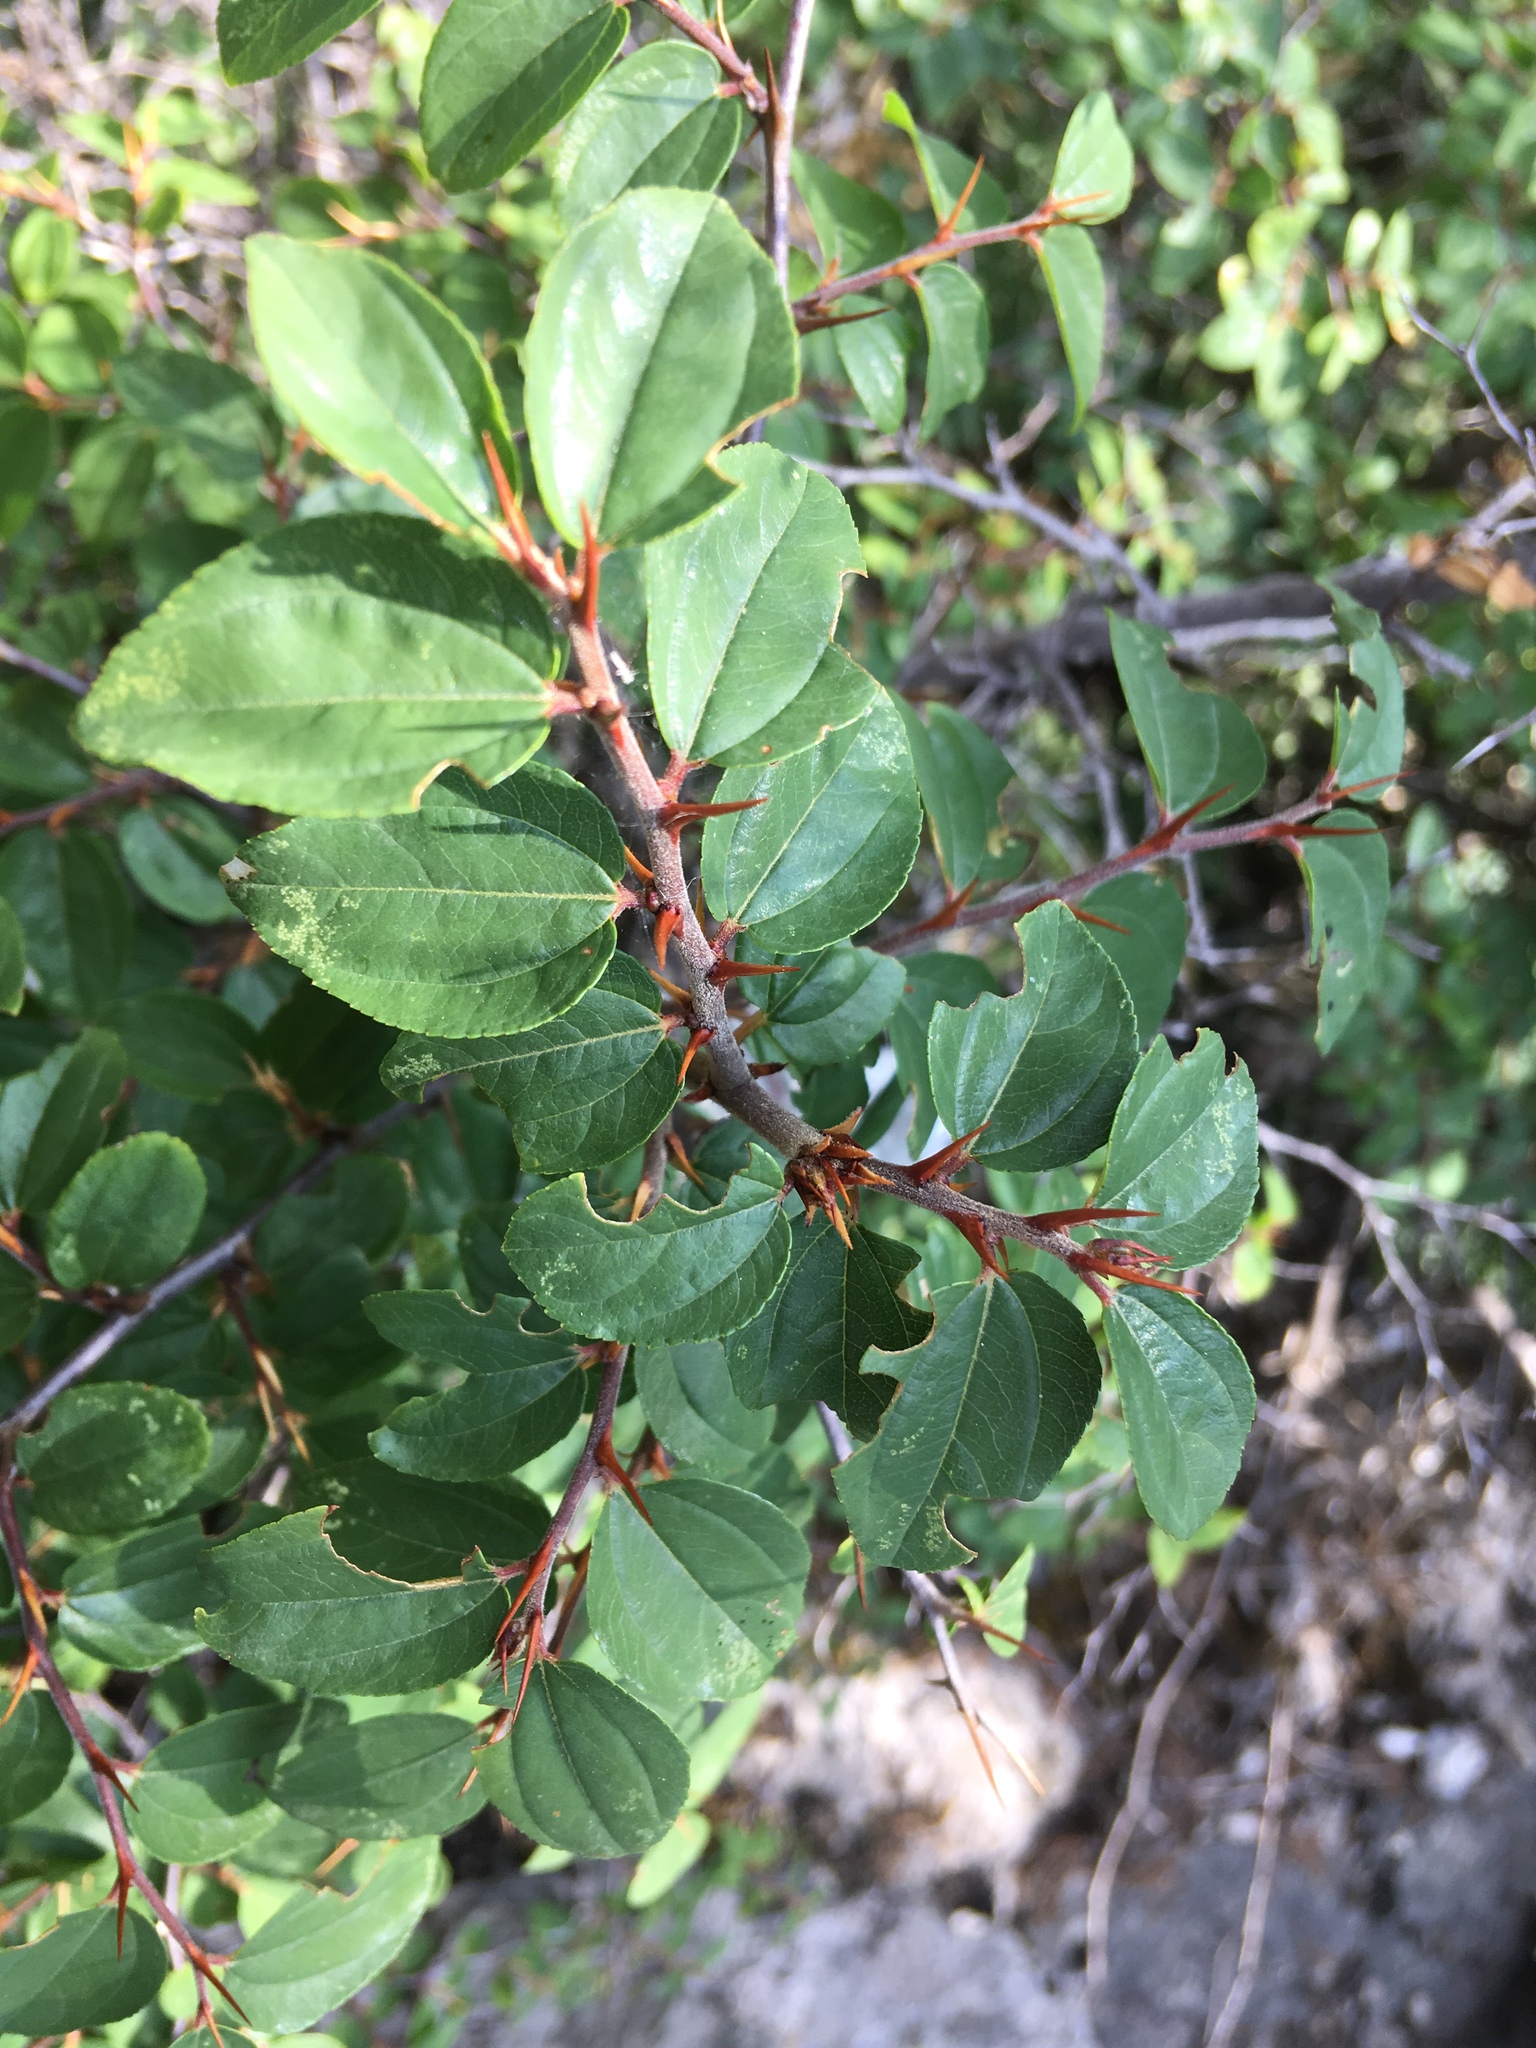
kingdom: Plantae
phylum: Tracheophyta
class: Magnoliopsida
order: Rosales
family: Rhamnaceae
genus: Paliurus
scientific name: Paliurus spina-christi
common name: Jeruselem thorn
